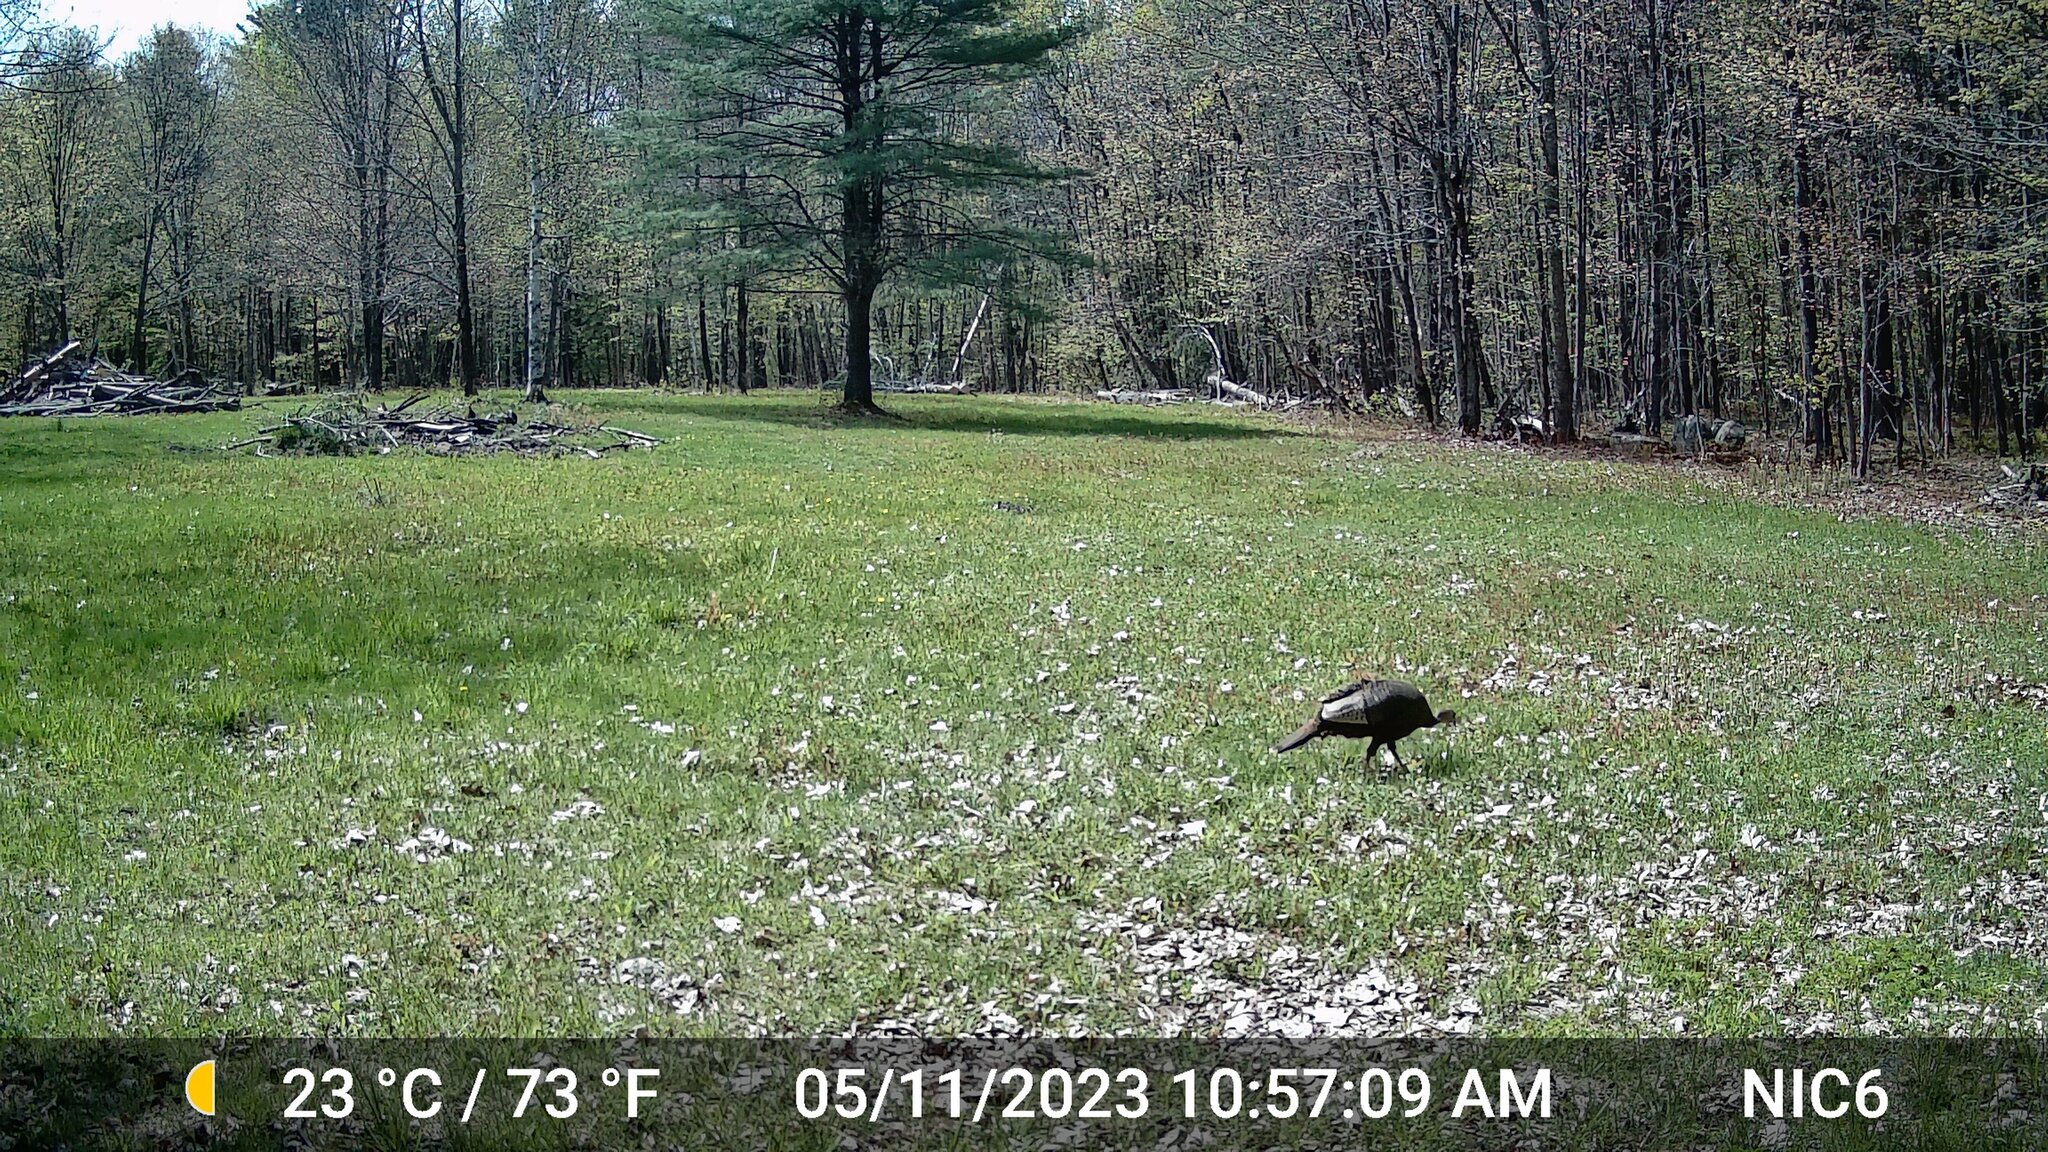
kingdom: Animalia
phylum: Chordata
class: Aves
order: Galliformes
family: Phasianidae
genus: Meleagris
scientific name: Meleagris gallopavo
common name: Wild turkey
